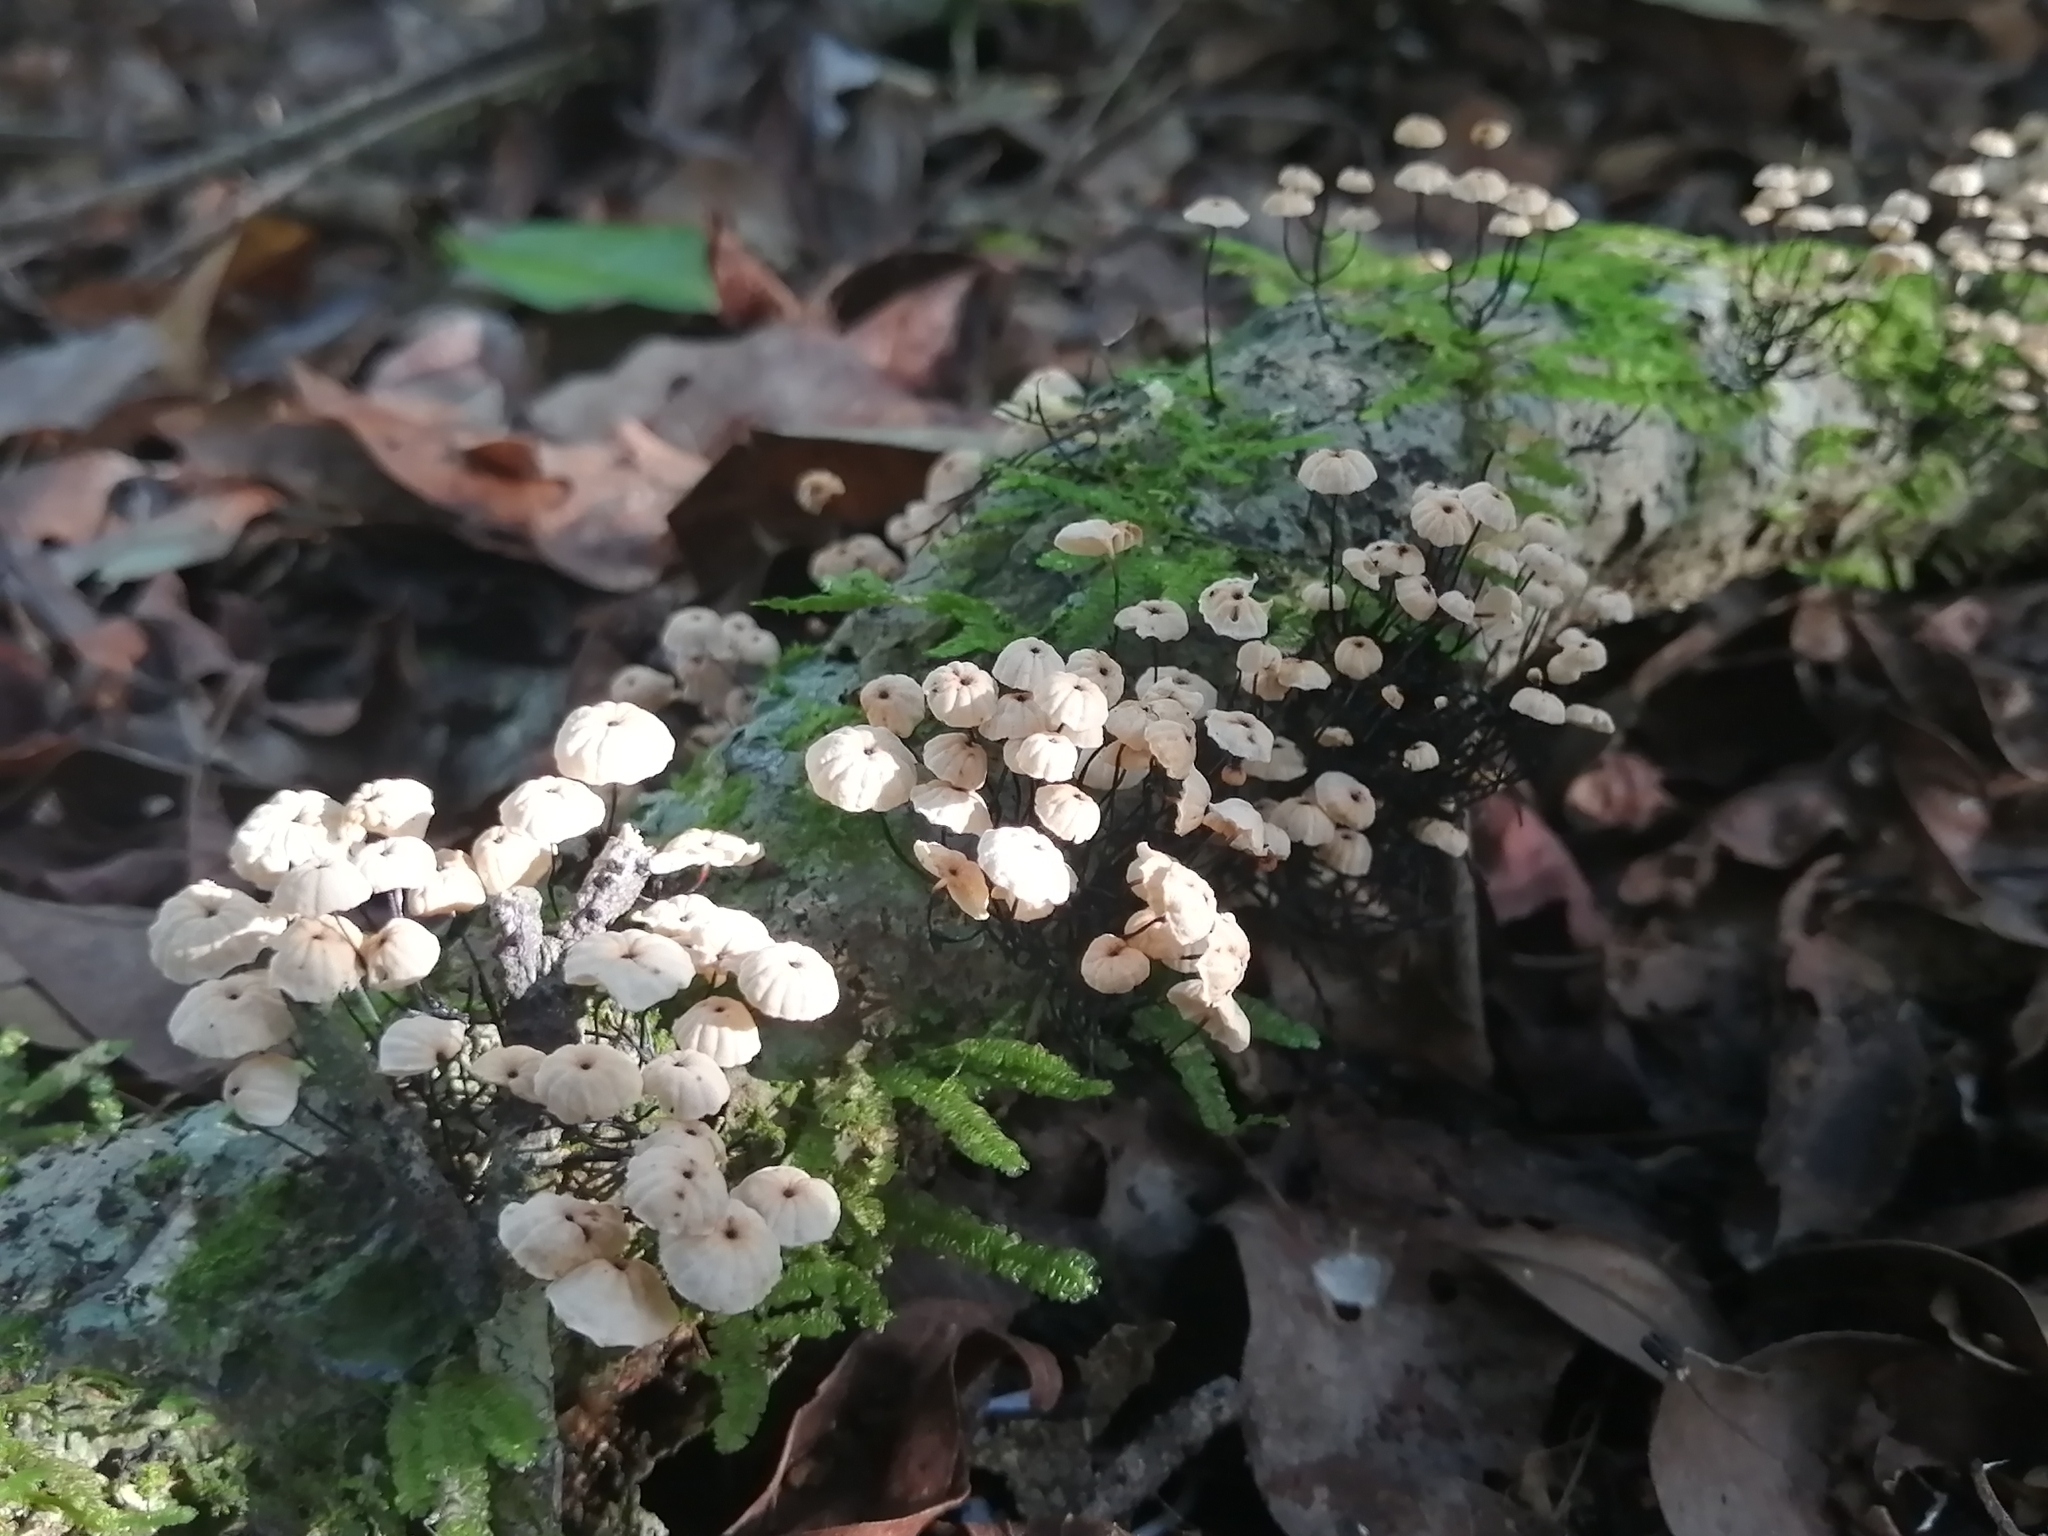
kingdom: Fungi
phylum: Basidiomycota
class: Agaricomycetes
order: Agaricales
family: Marasmiaceae
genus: Marasmius
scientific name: Marasmius rotula
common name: Collared parachute
